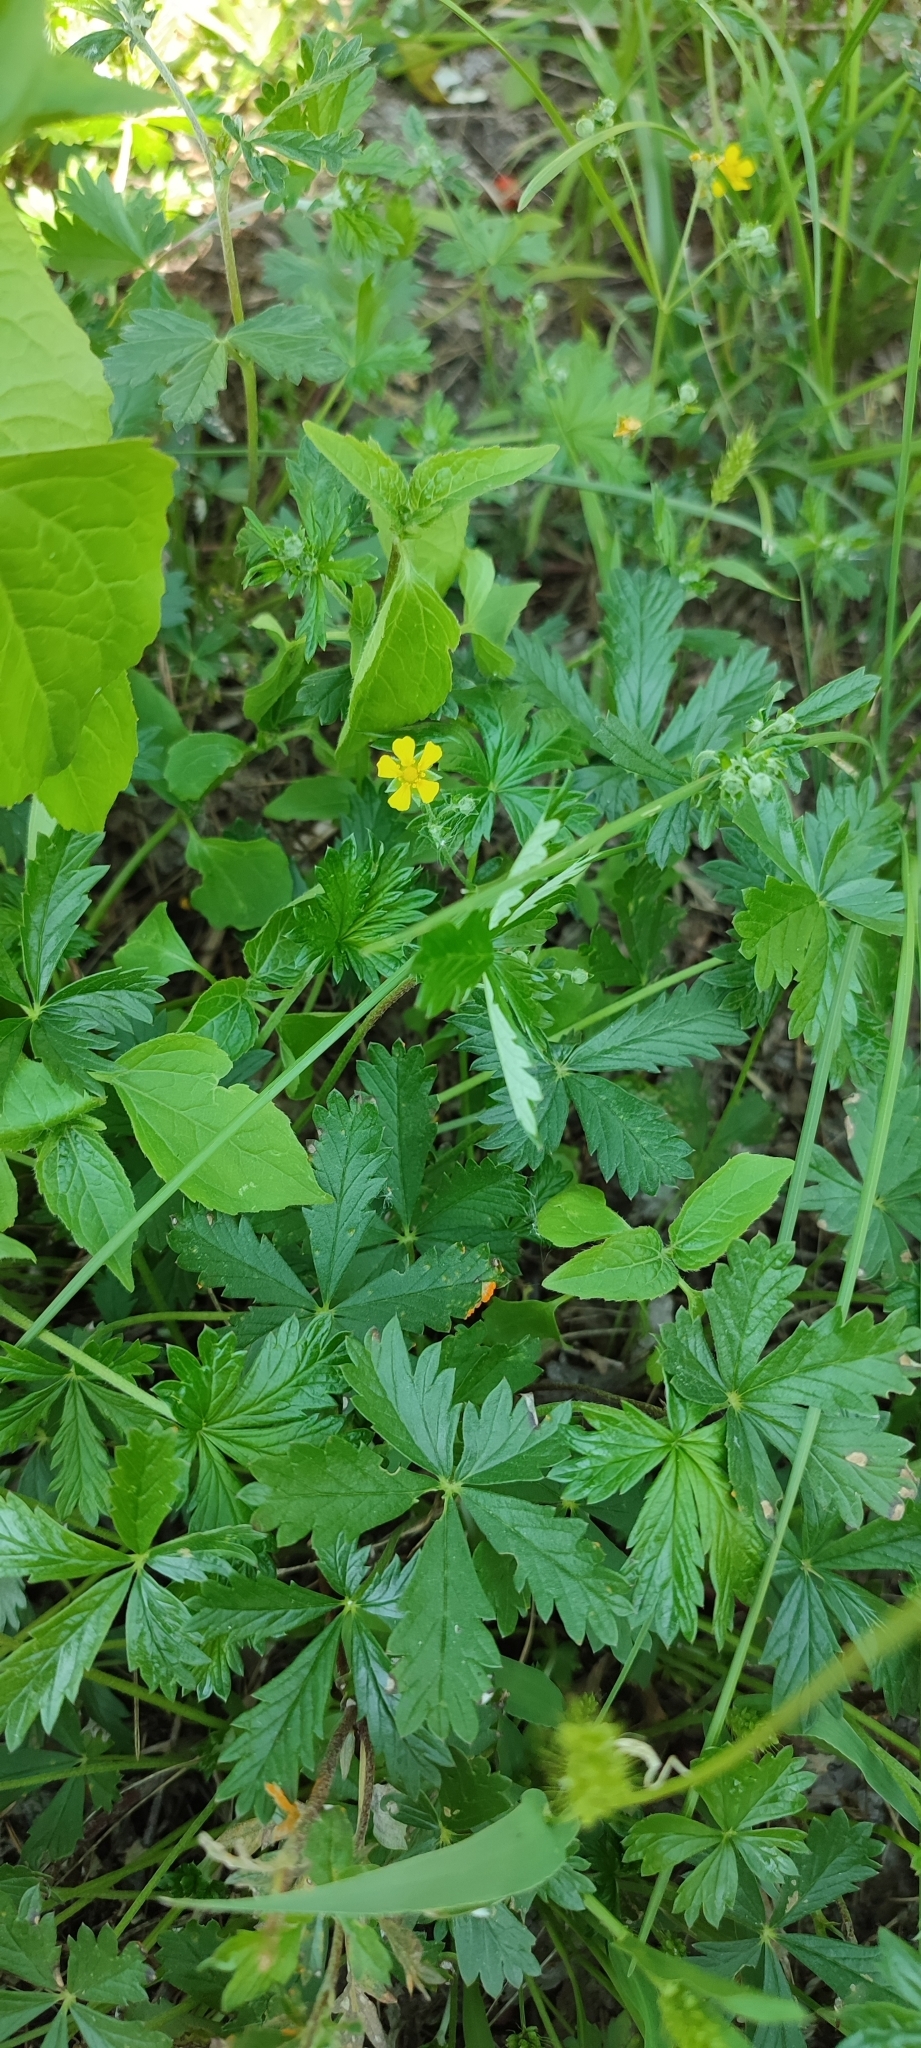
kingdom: Plantae
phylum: Tracheophyta
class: Magnoliopsida
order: Rosales
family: Rosaceae
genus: Potentilla
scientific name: Potentilla intermedia
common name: Downy cinquefoil
